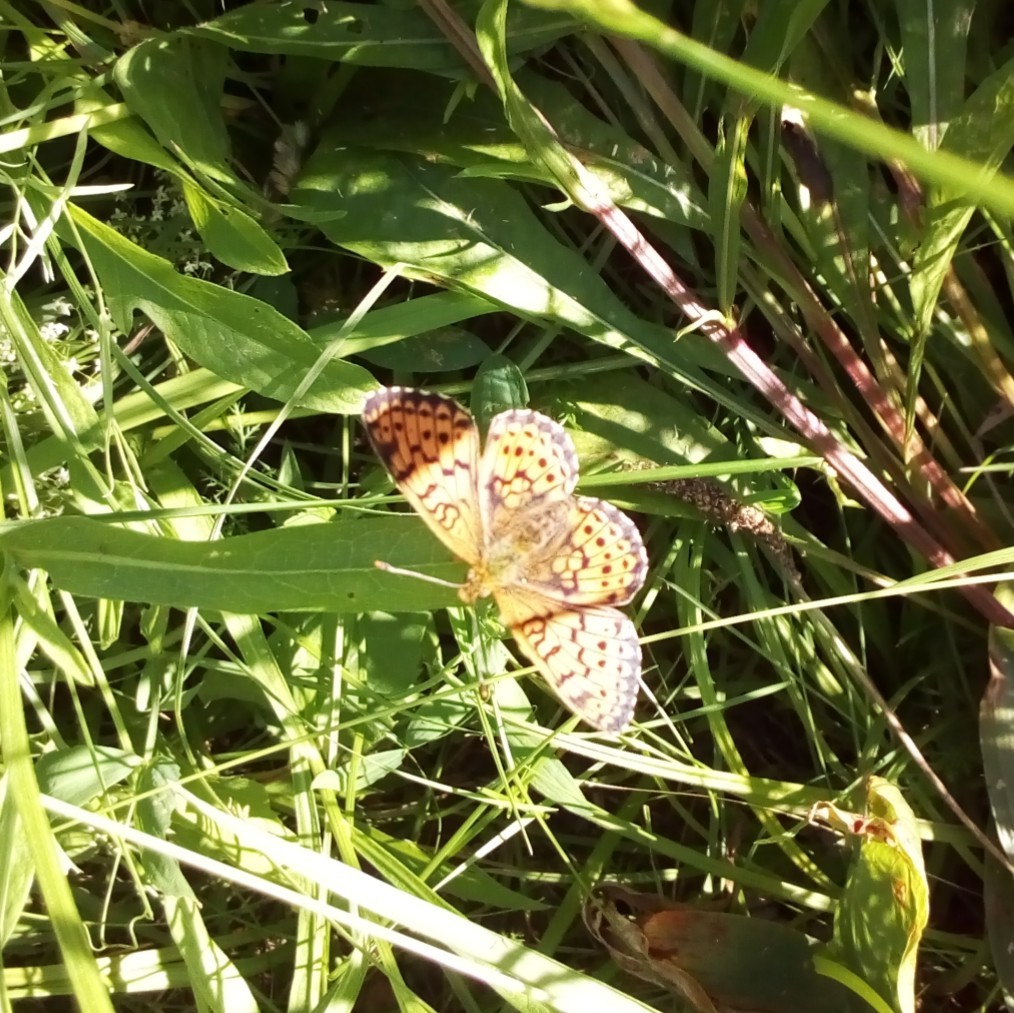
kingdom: Animalia
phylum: Arthropoda
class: Insecta
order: Lepidoptera
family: Nymphalidae
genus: Brenthis
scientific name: Brenthis ino
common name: Lesser marbled fritillary
